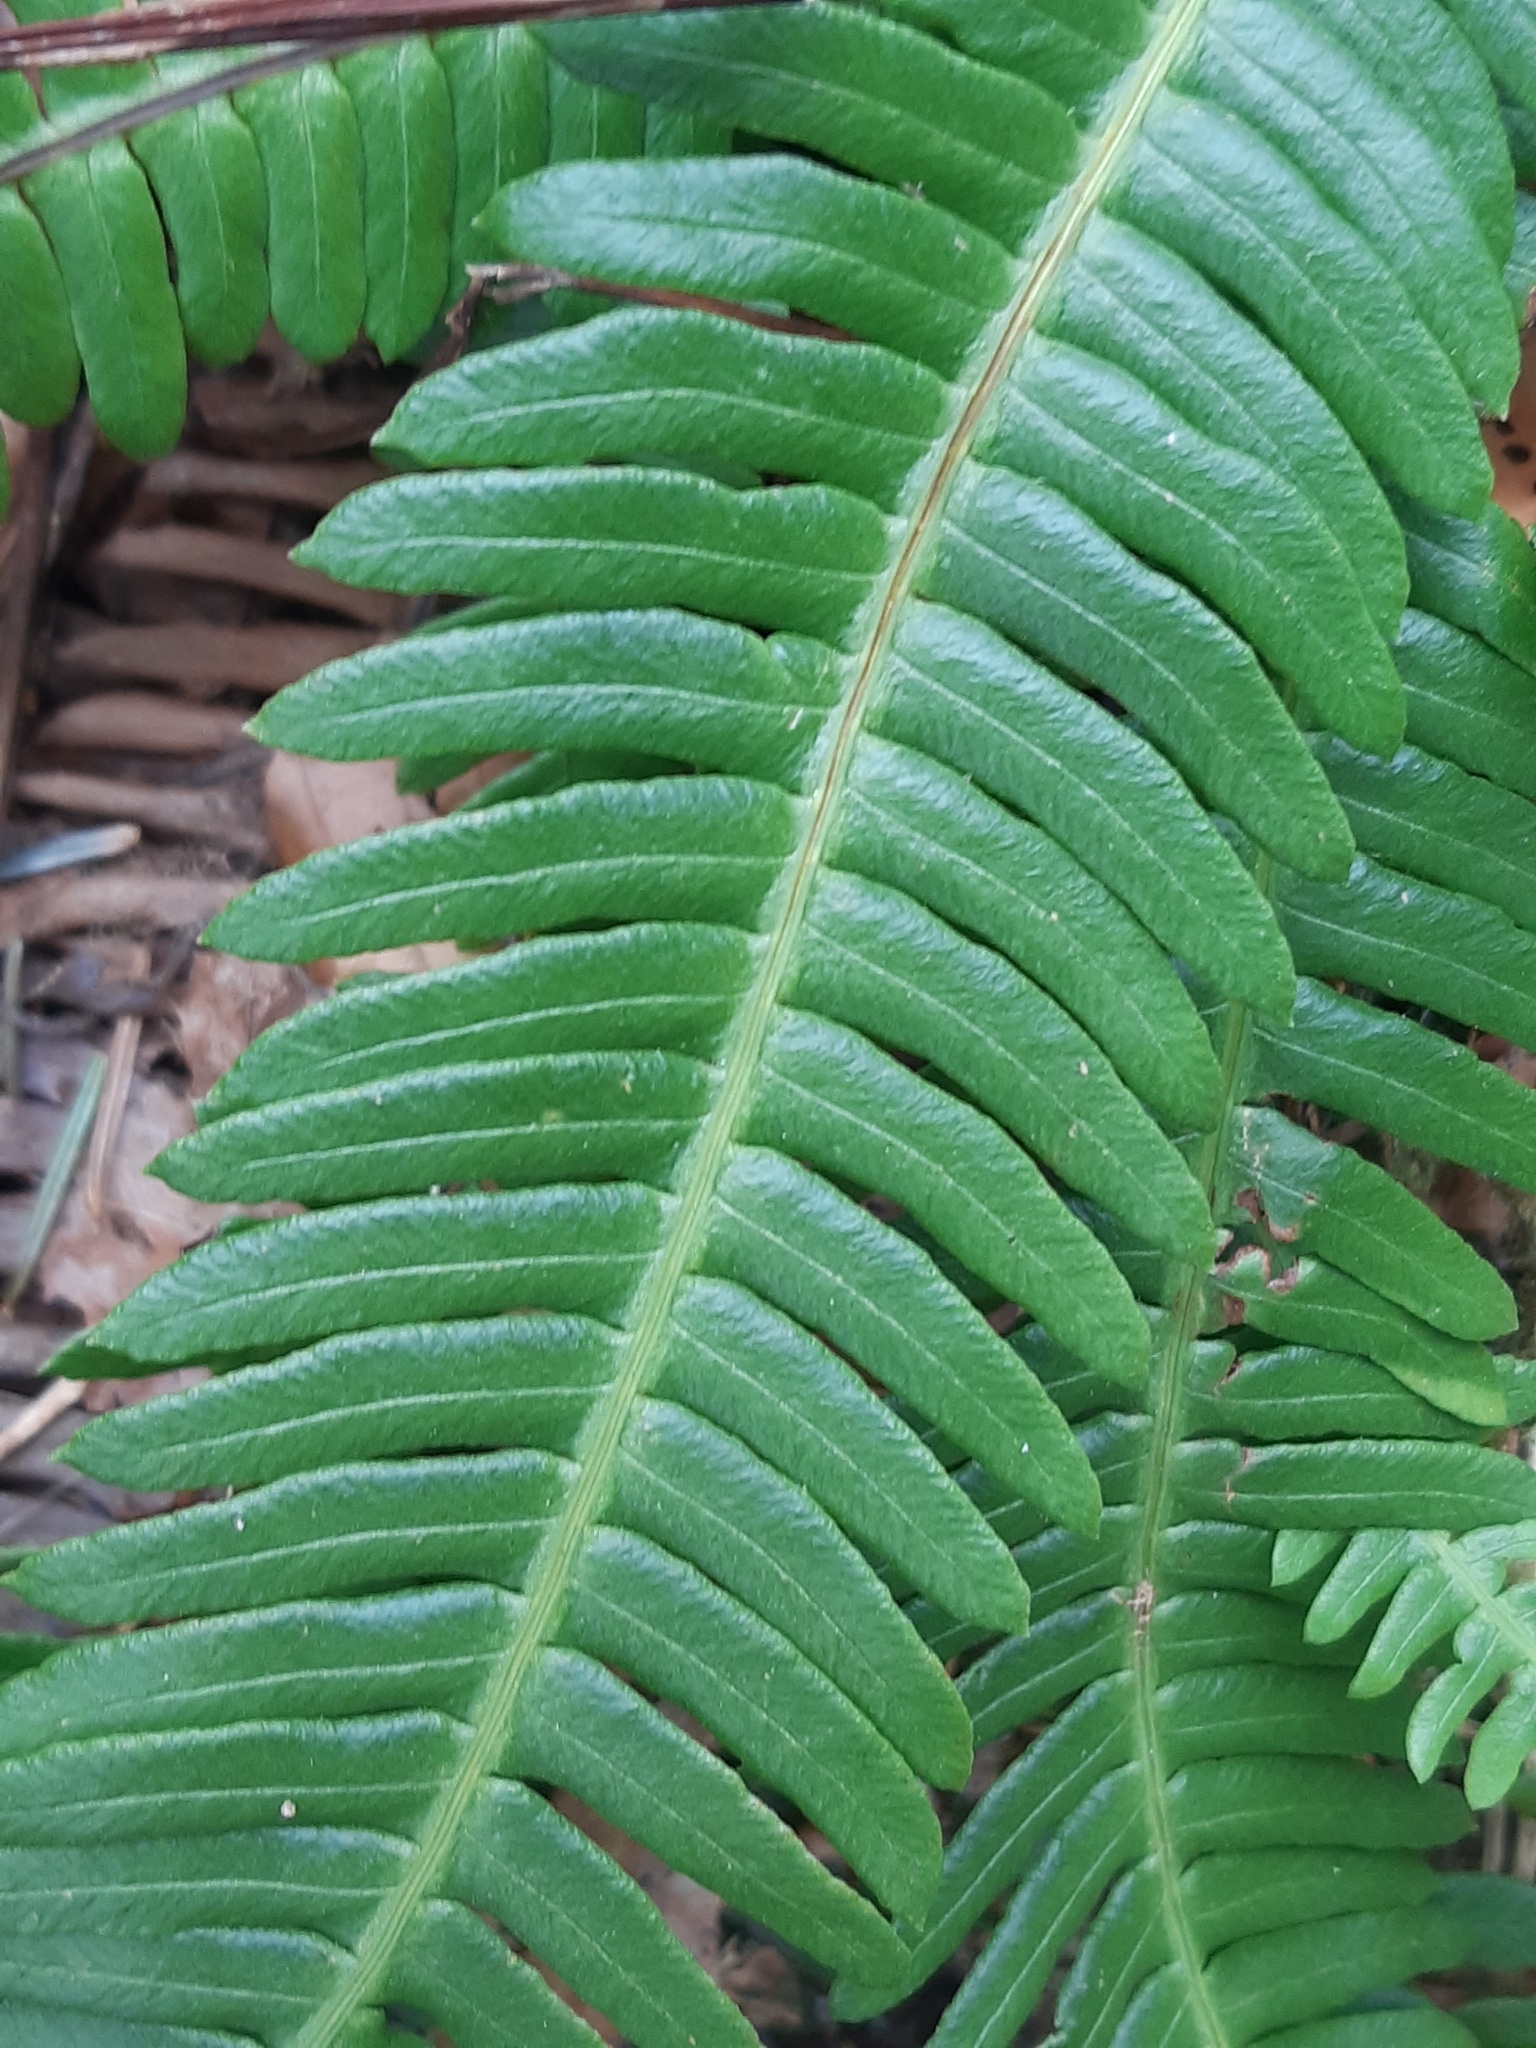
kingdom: Plantae
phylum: Tracheophyta
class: Polypodiopsida
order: Polypodiales
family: Blechnaceae
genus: Struthiopteris
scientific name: Struthiopteris spicant
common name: Deer fern
